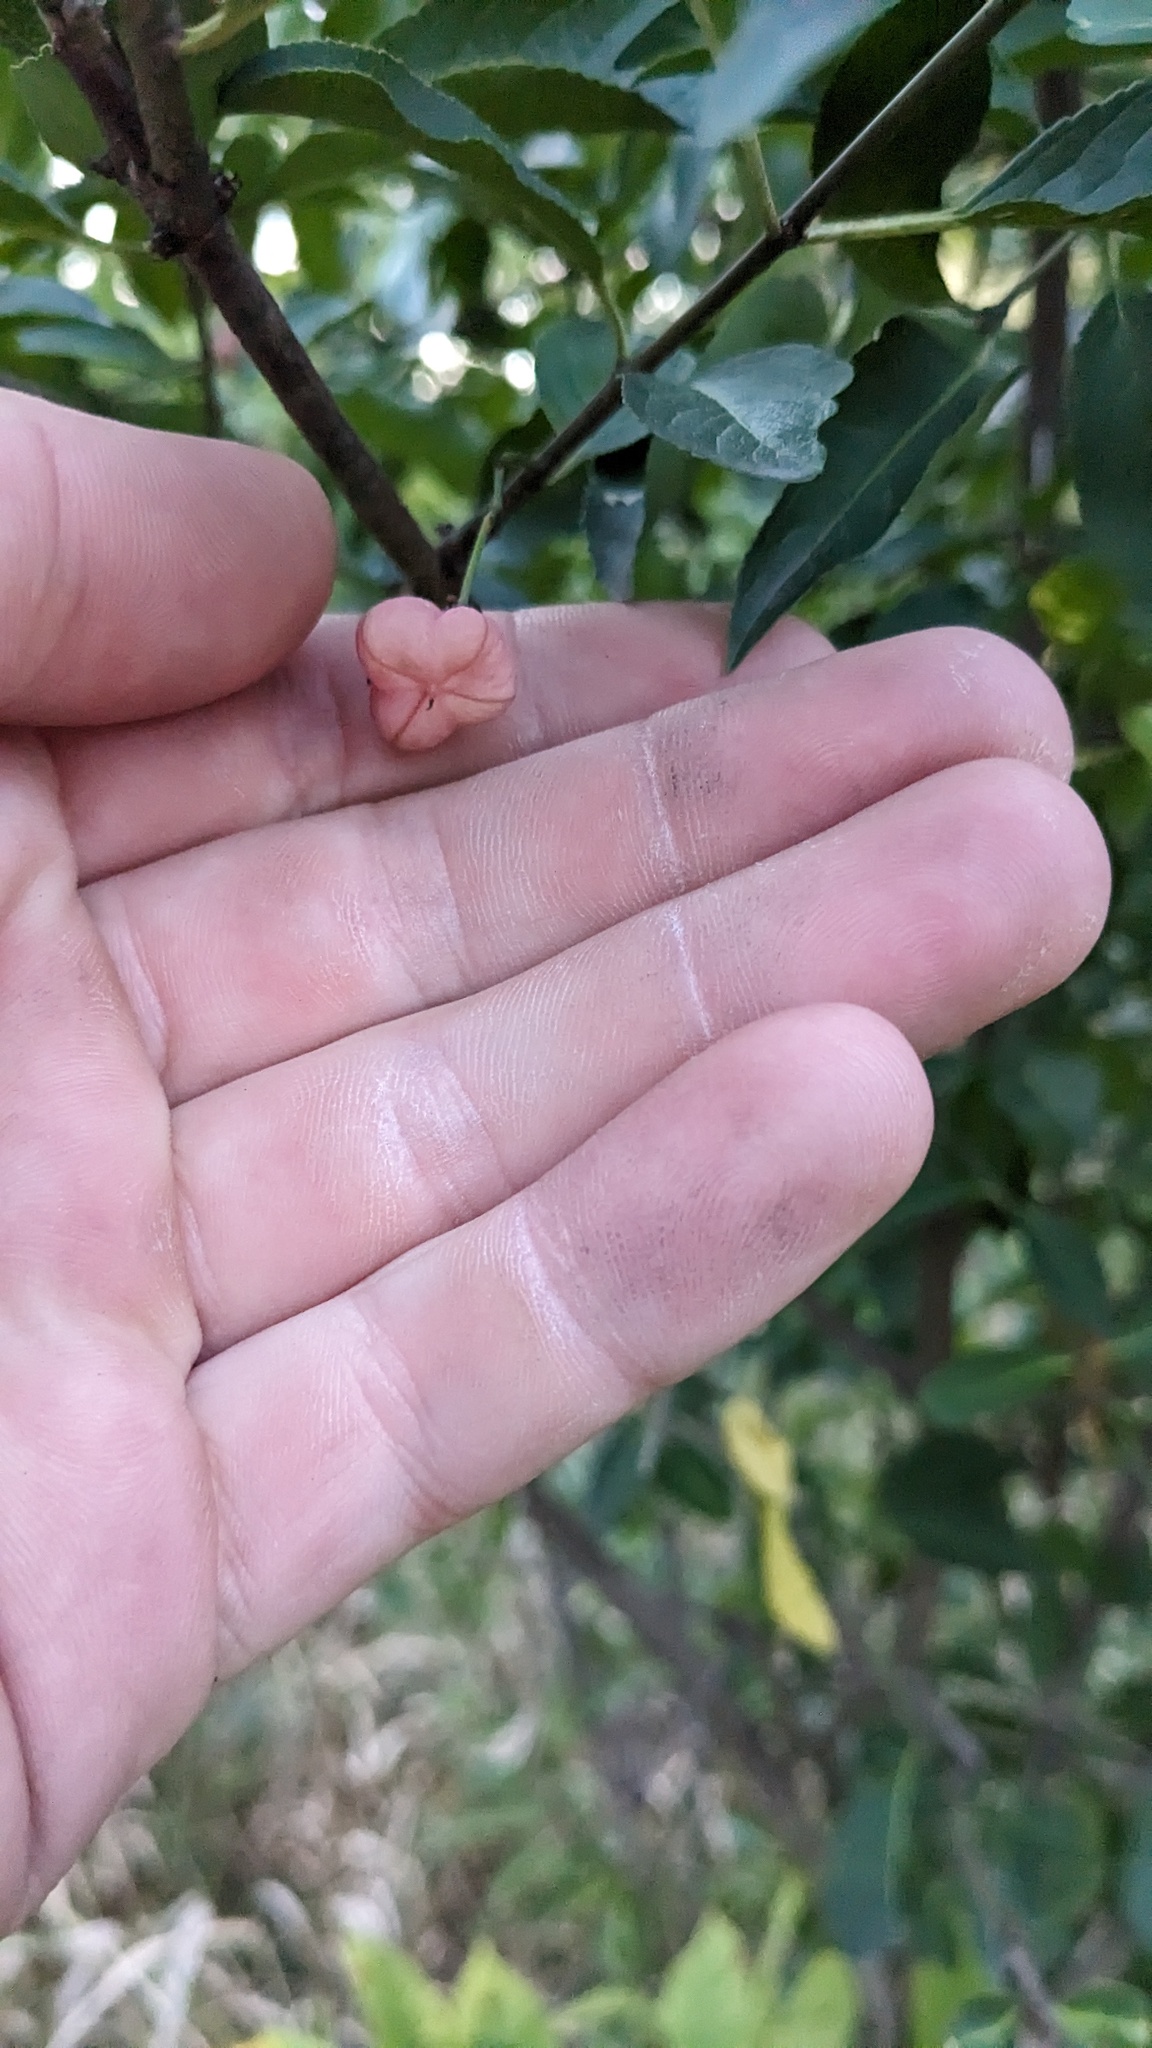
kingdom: Plantae
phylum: Tracheophyta
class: Magnoliopsida
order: Celastrales
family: Celastraceae
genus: Euonymus
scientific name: Euonymus atropurpureus
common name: Eastern wahoo
